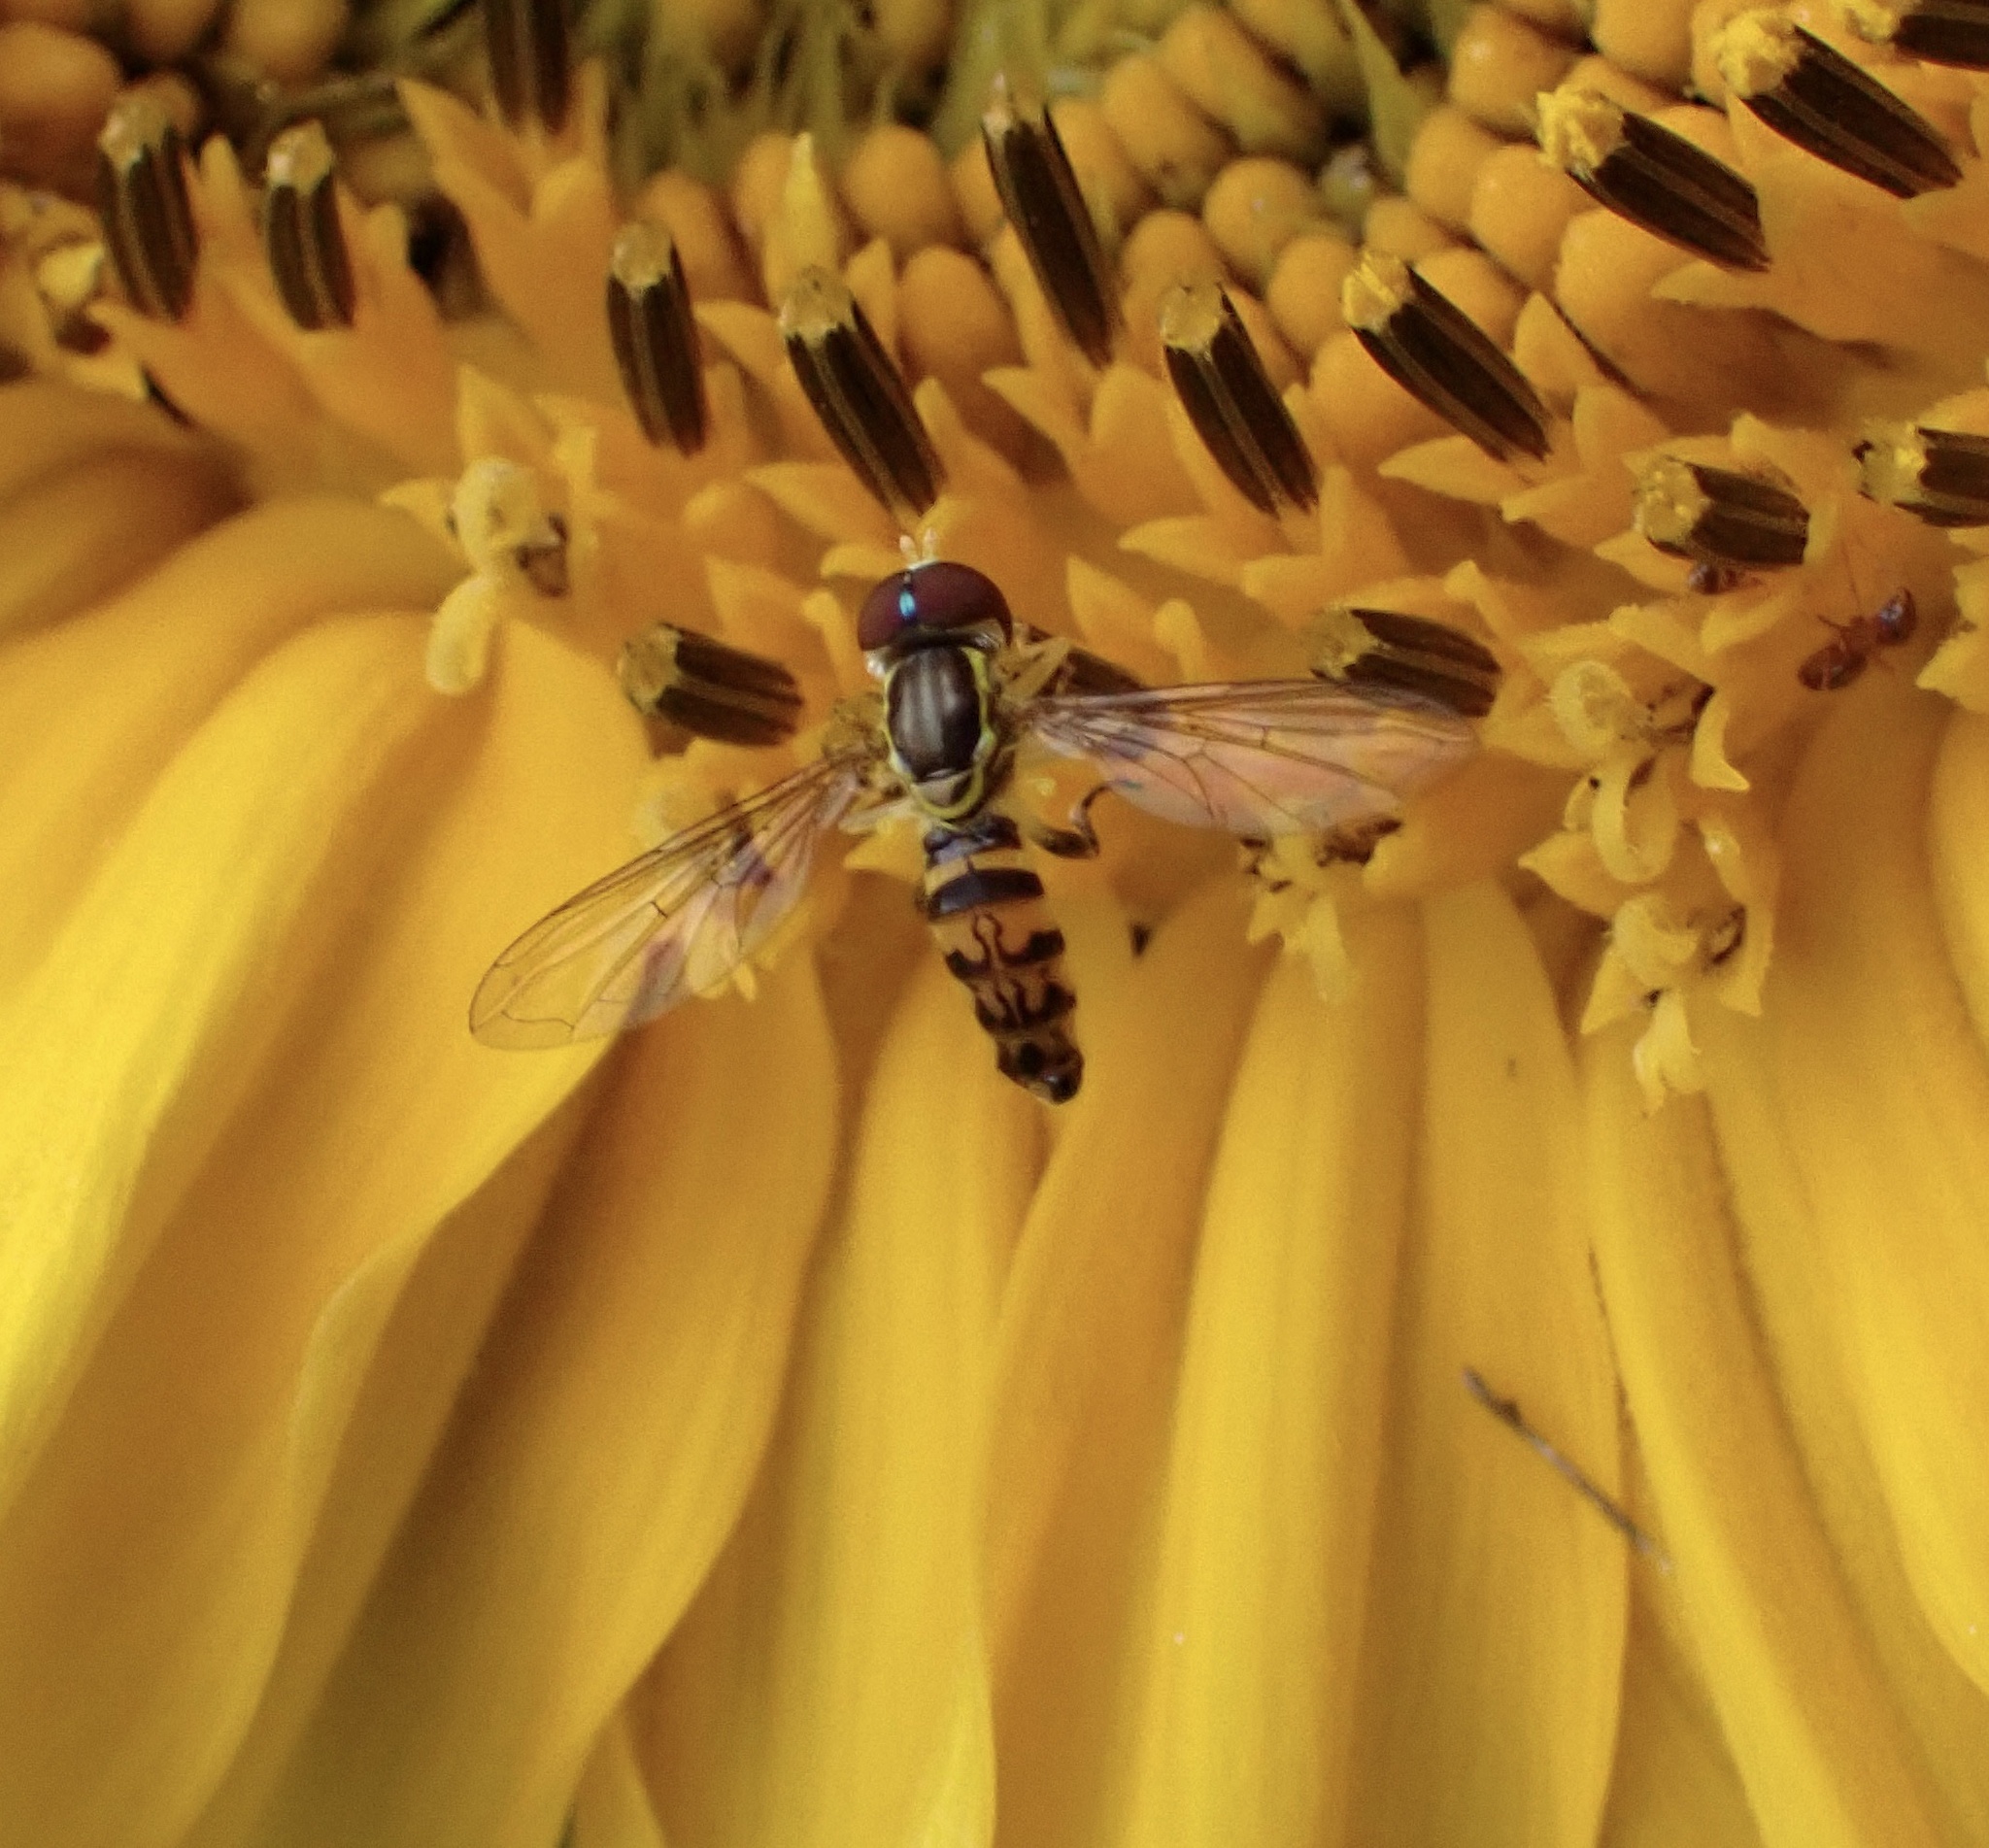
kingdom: Animalia
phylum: Arthropoda
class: Insecta
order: Diptera
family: Syrphidae
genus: Toxomerus
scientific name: Toxomerus geminatus
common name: Eastern calligrapher
